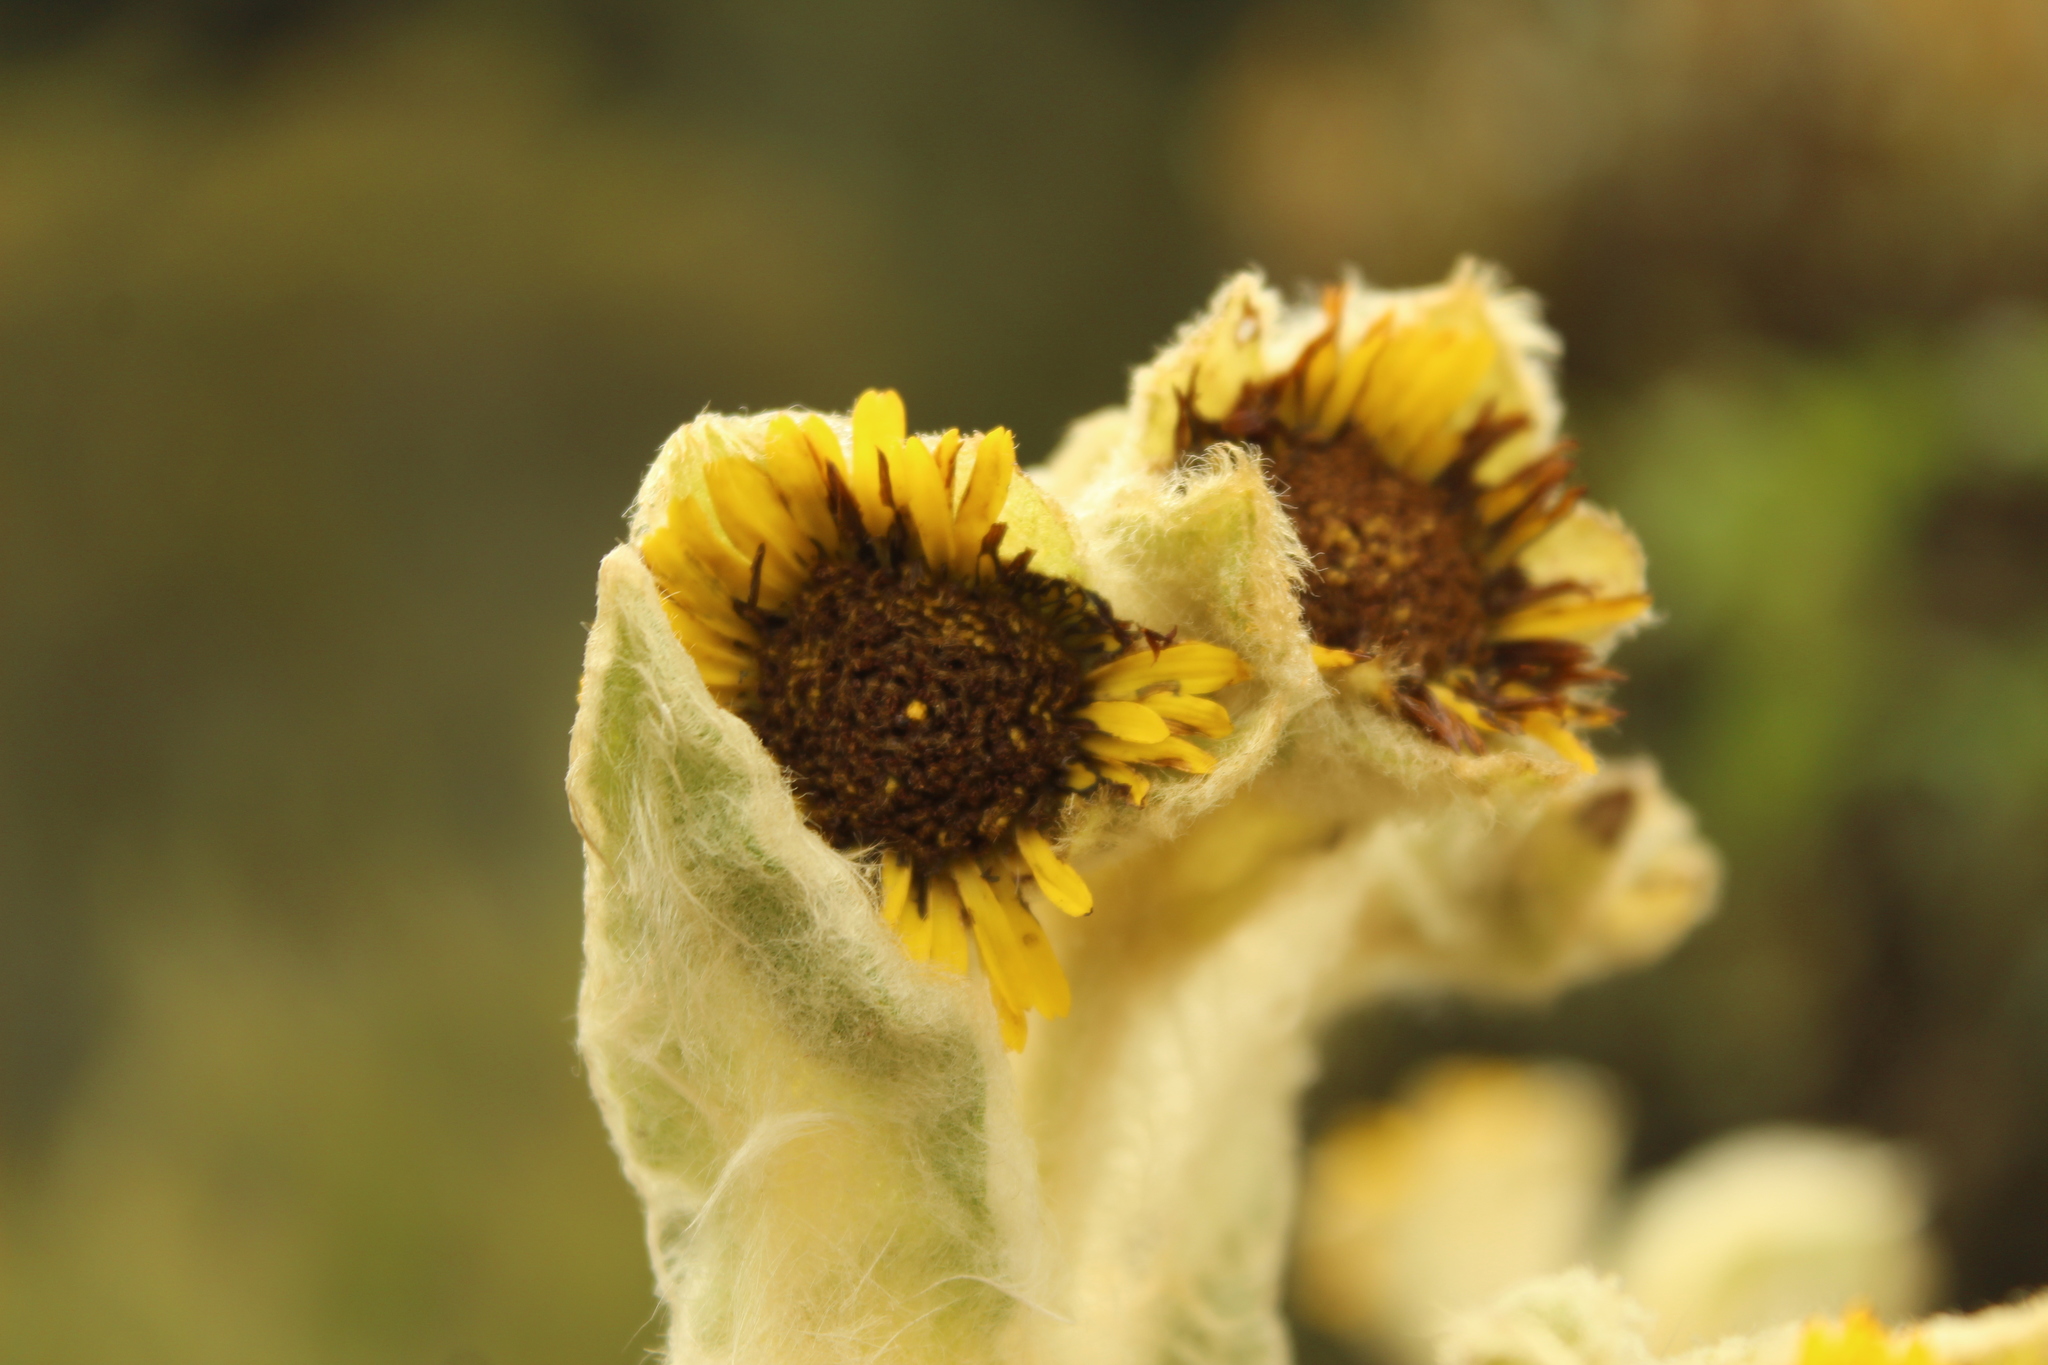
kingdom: Plantae
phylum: Tracheophyta
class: Magnoliopsida
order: Asterales
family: Asteraceae
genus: Espeletia
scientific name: Espeletia barclayana
